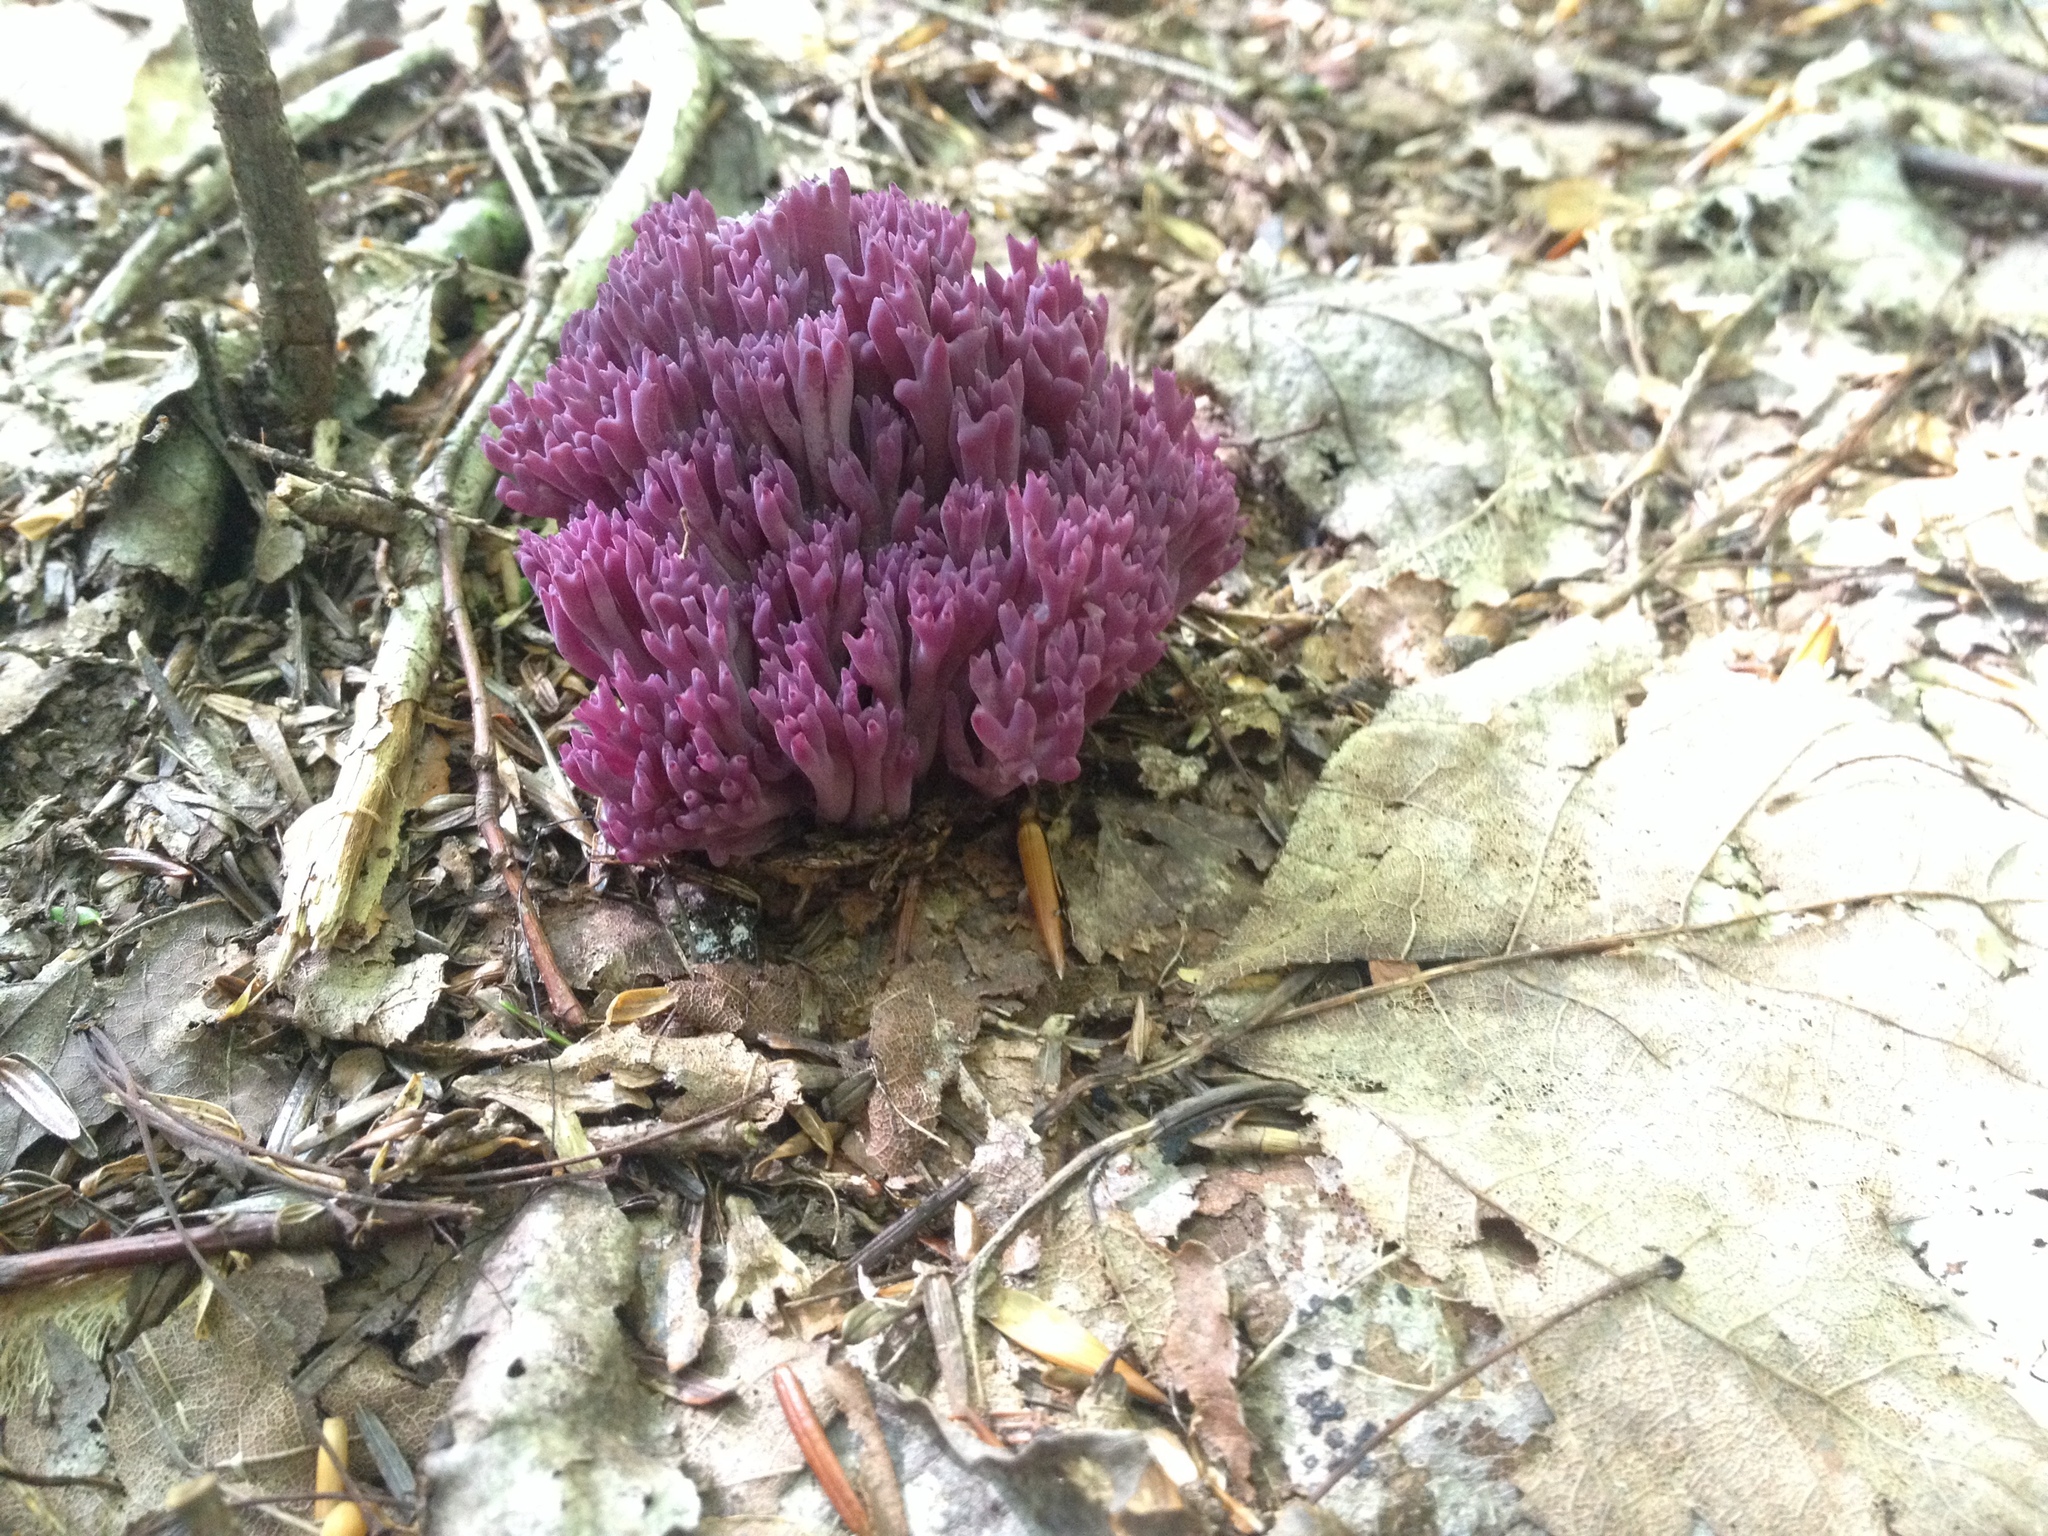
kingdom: Fungi
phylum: Basidiomycota
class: Agaricomycetes
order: Agaricales
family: Clavariaceae
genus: Clavaria
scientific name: Clavaria zollingeri
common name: Violet coral
